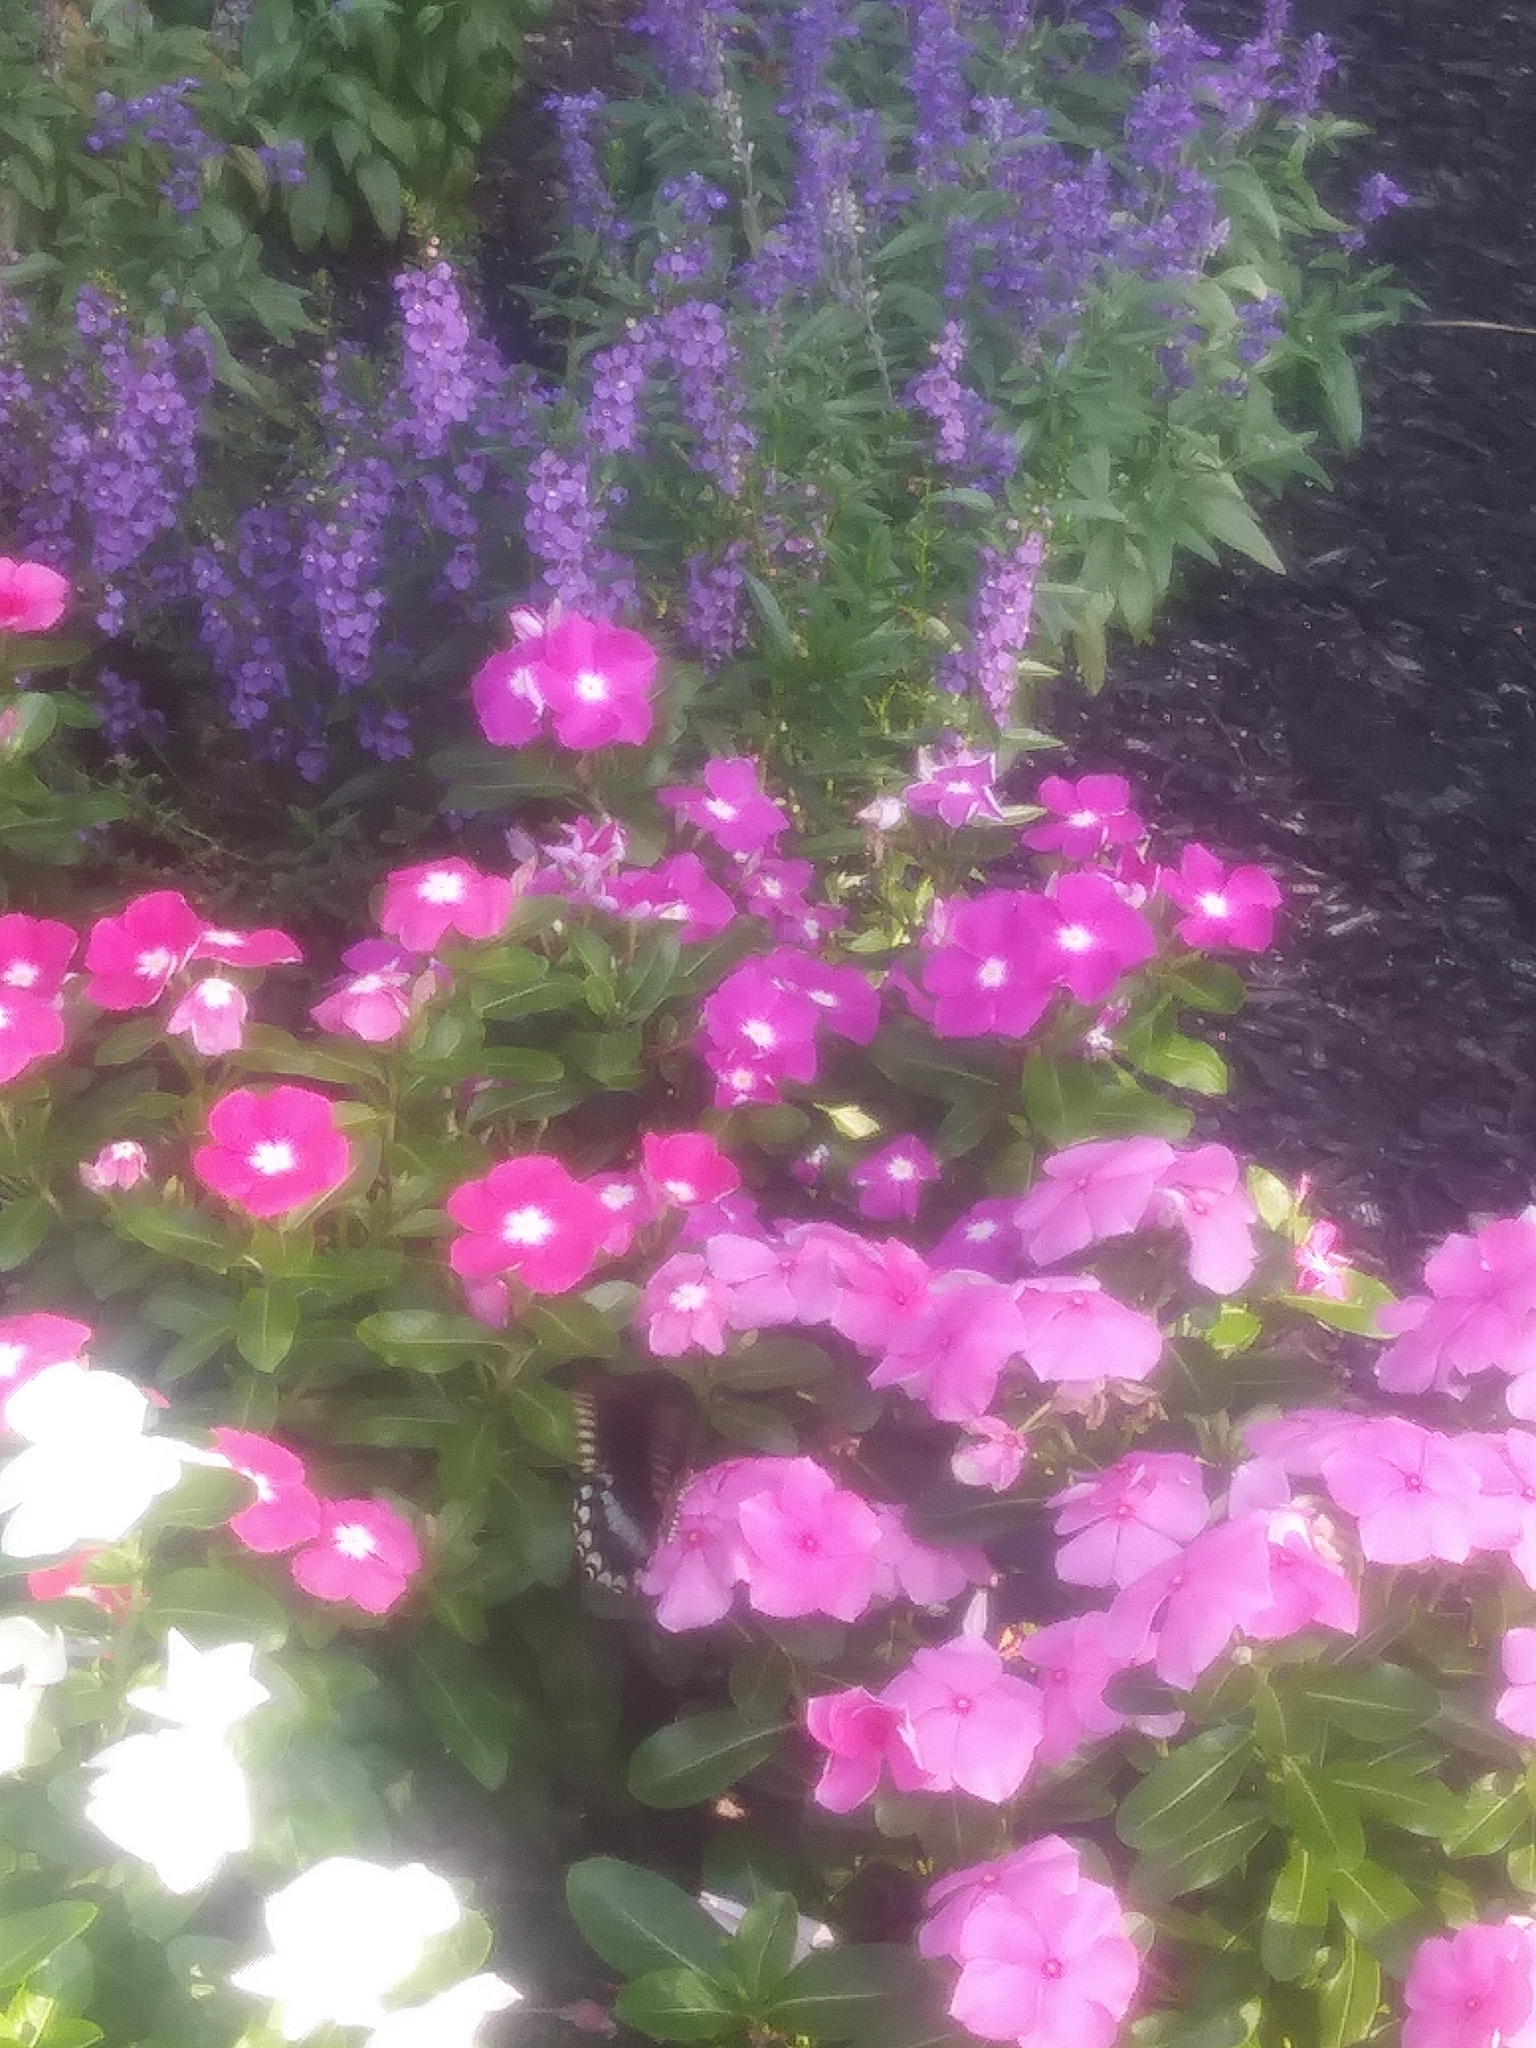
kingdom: Animalia
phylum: Arthropoda
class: Insecta
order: Lepidoptera
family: Papilionidae
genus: Papilio
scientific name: Papilio troilus
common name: Spicebush swallowtail
